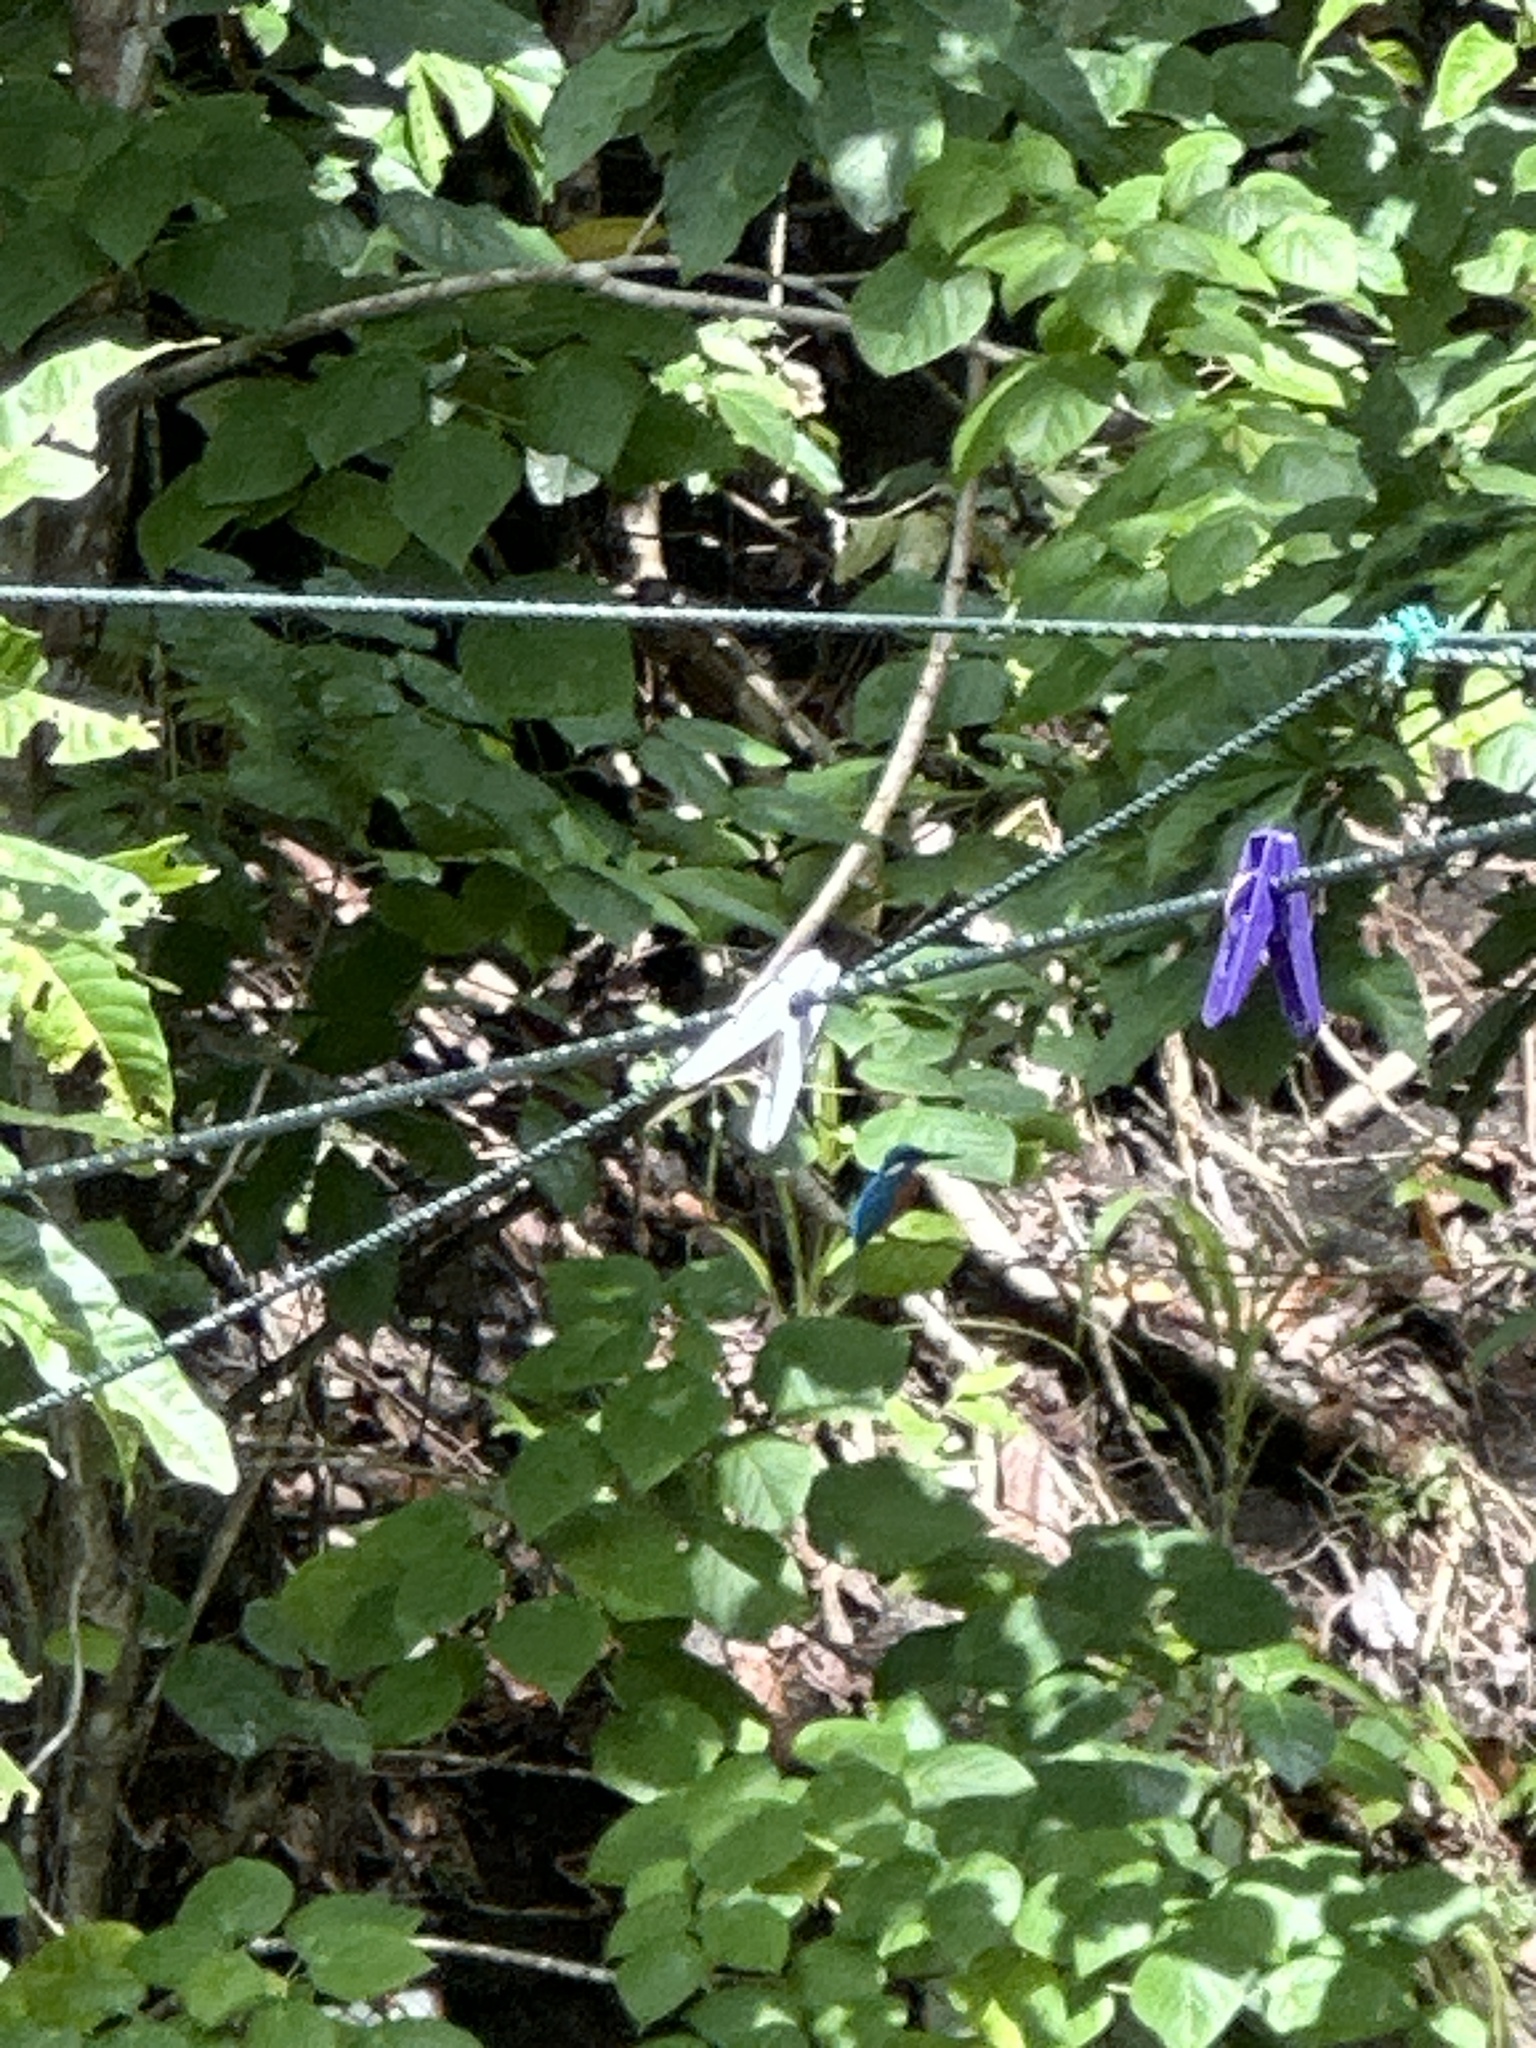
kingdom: Animalia
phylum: Chordata
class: Aves
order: Coraciiformes
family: Alcedinidae
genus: Alcedo
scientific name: Alcedo atthis
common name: Common kingfisher
